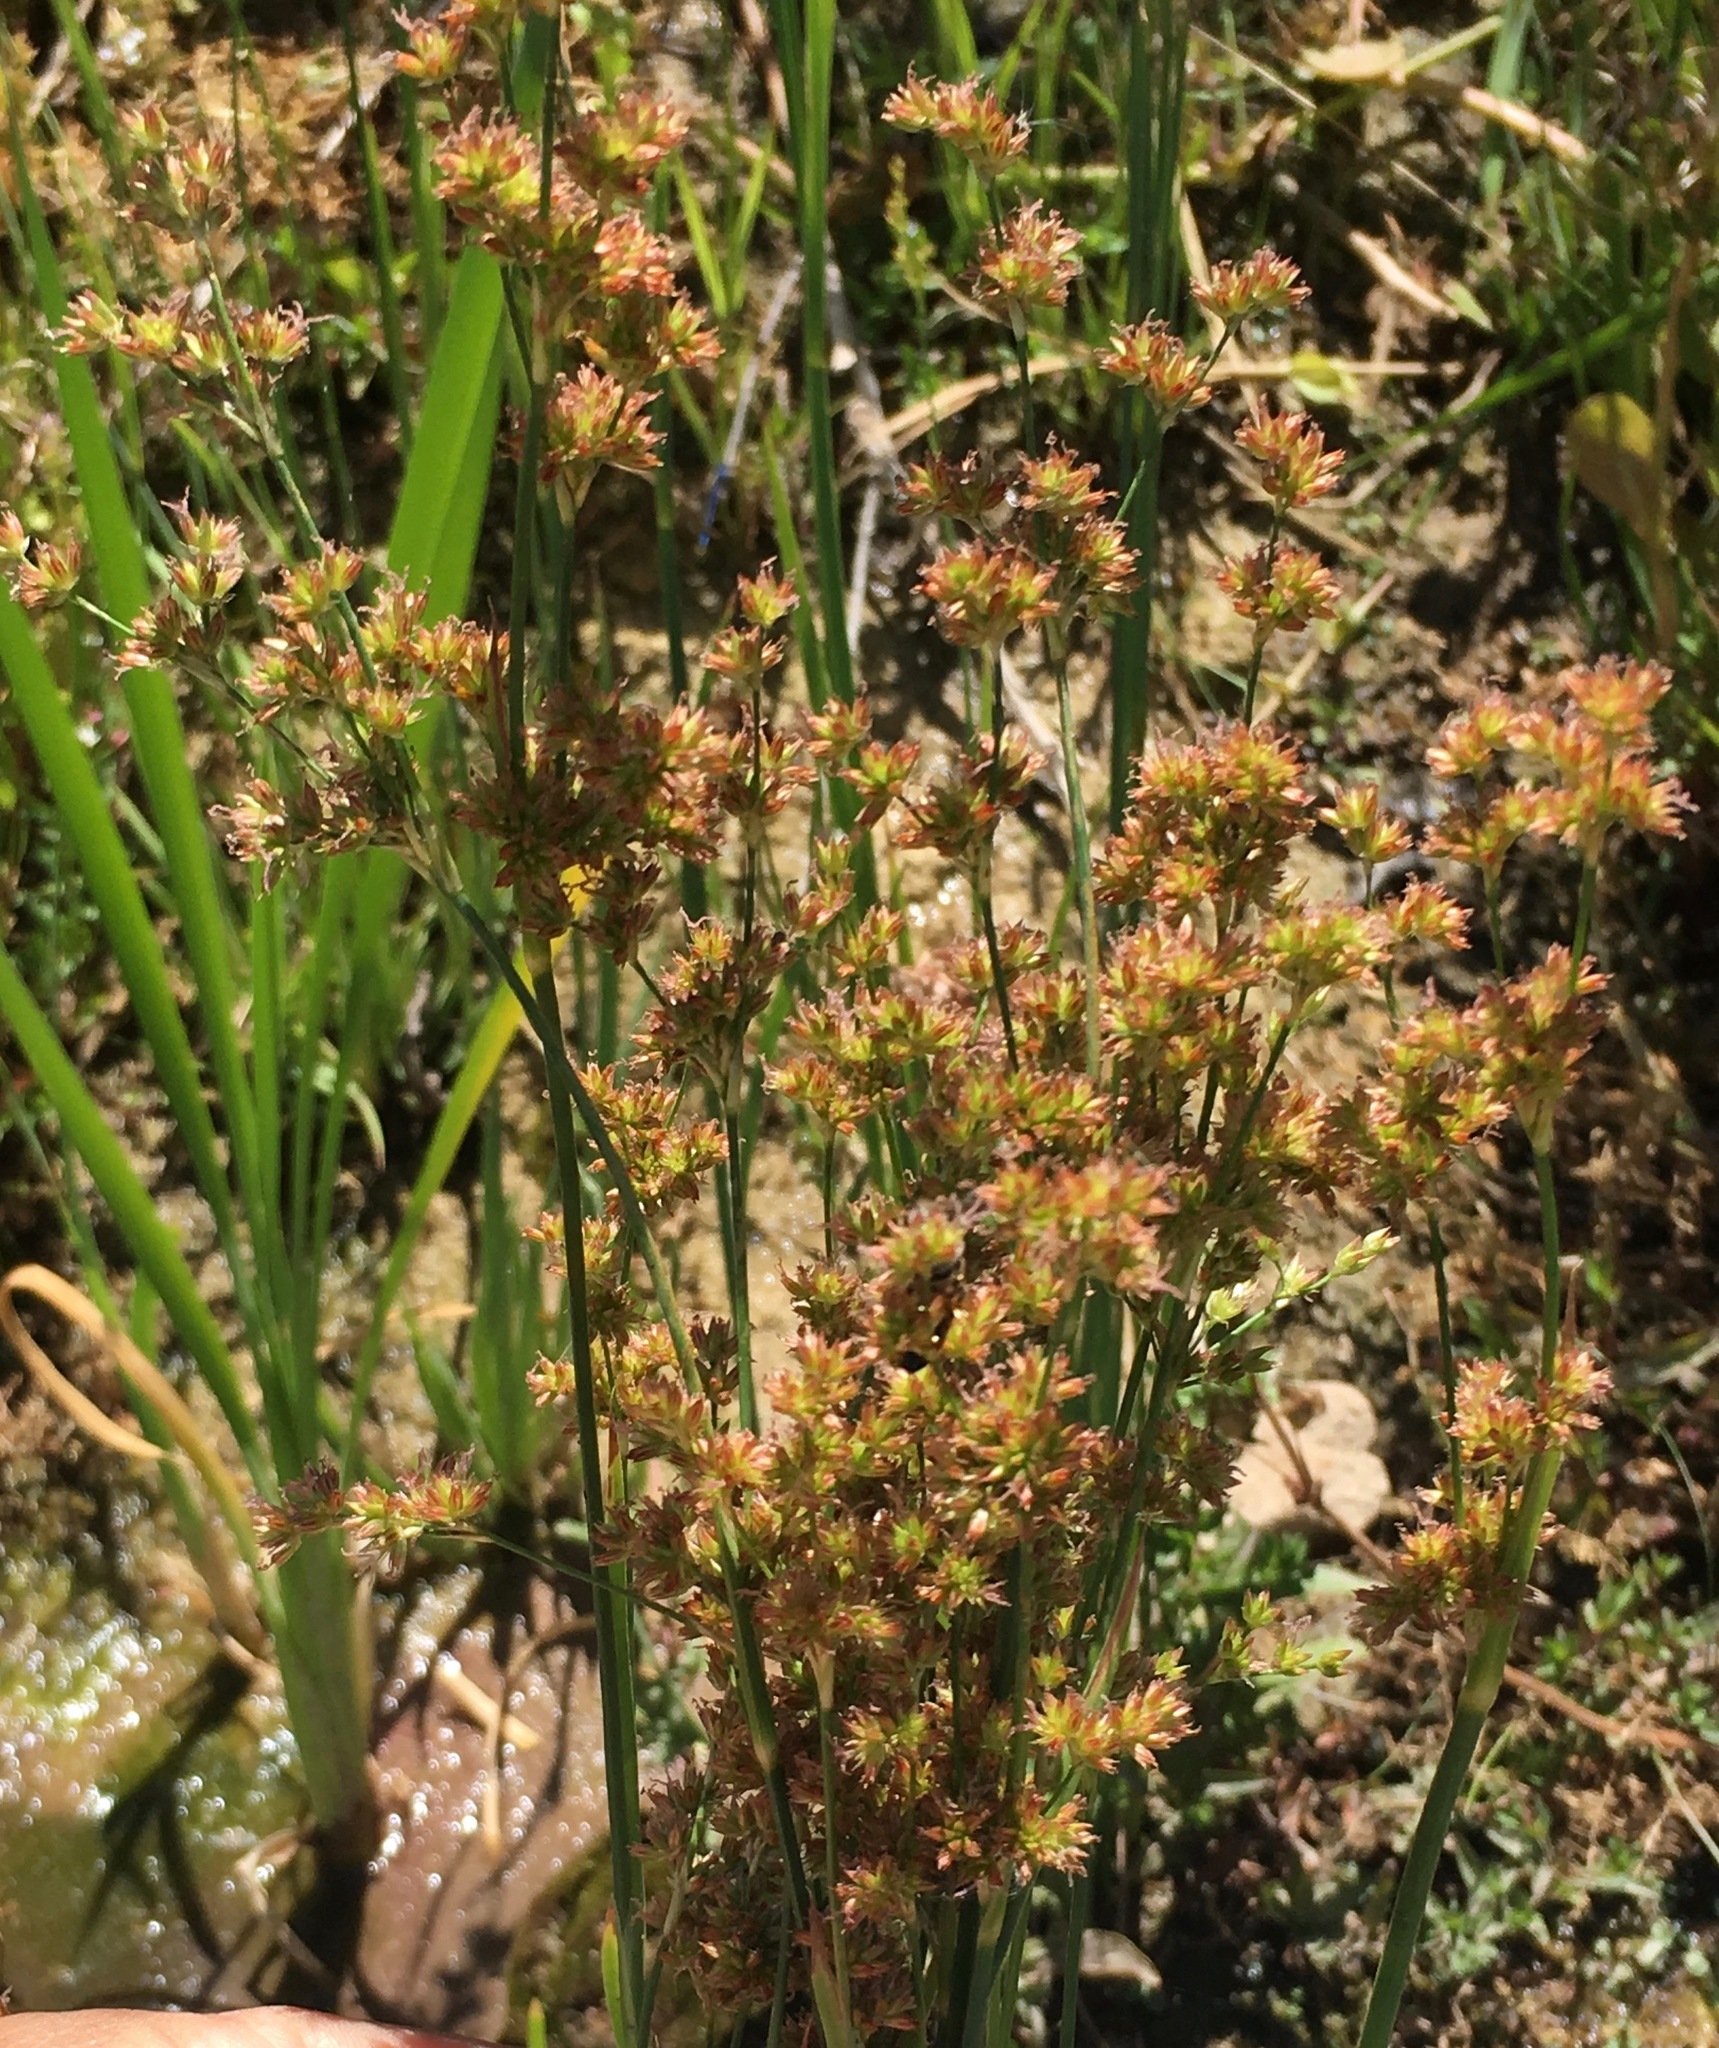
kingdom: Plantae
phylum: Tracheophyta
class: Liliopsida
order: Poales
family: Juncaceae
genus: Juncus
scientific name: Juncus xiphioides
